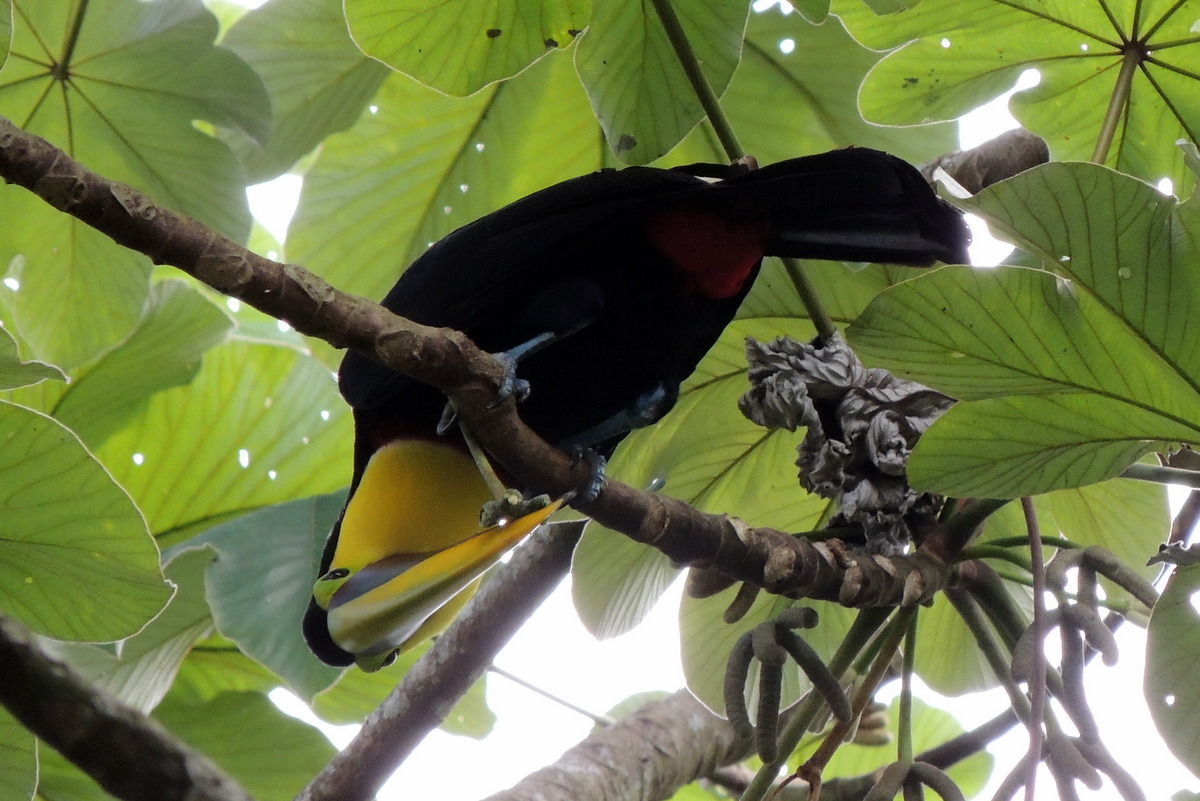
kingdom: Animalia
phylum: Chordata
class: Aves
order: Piciformes
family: Ramphastidae
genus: Ramphastos
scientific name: Ramphastos ambiguus
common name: Yellow-throated toucan
